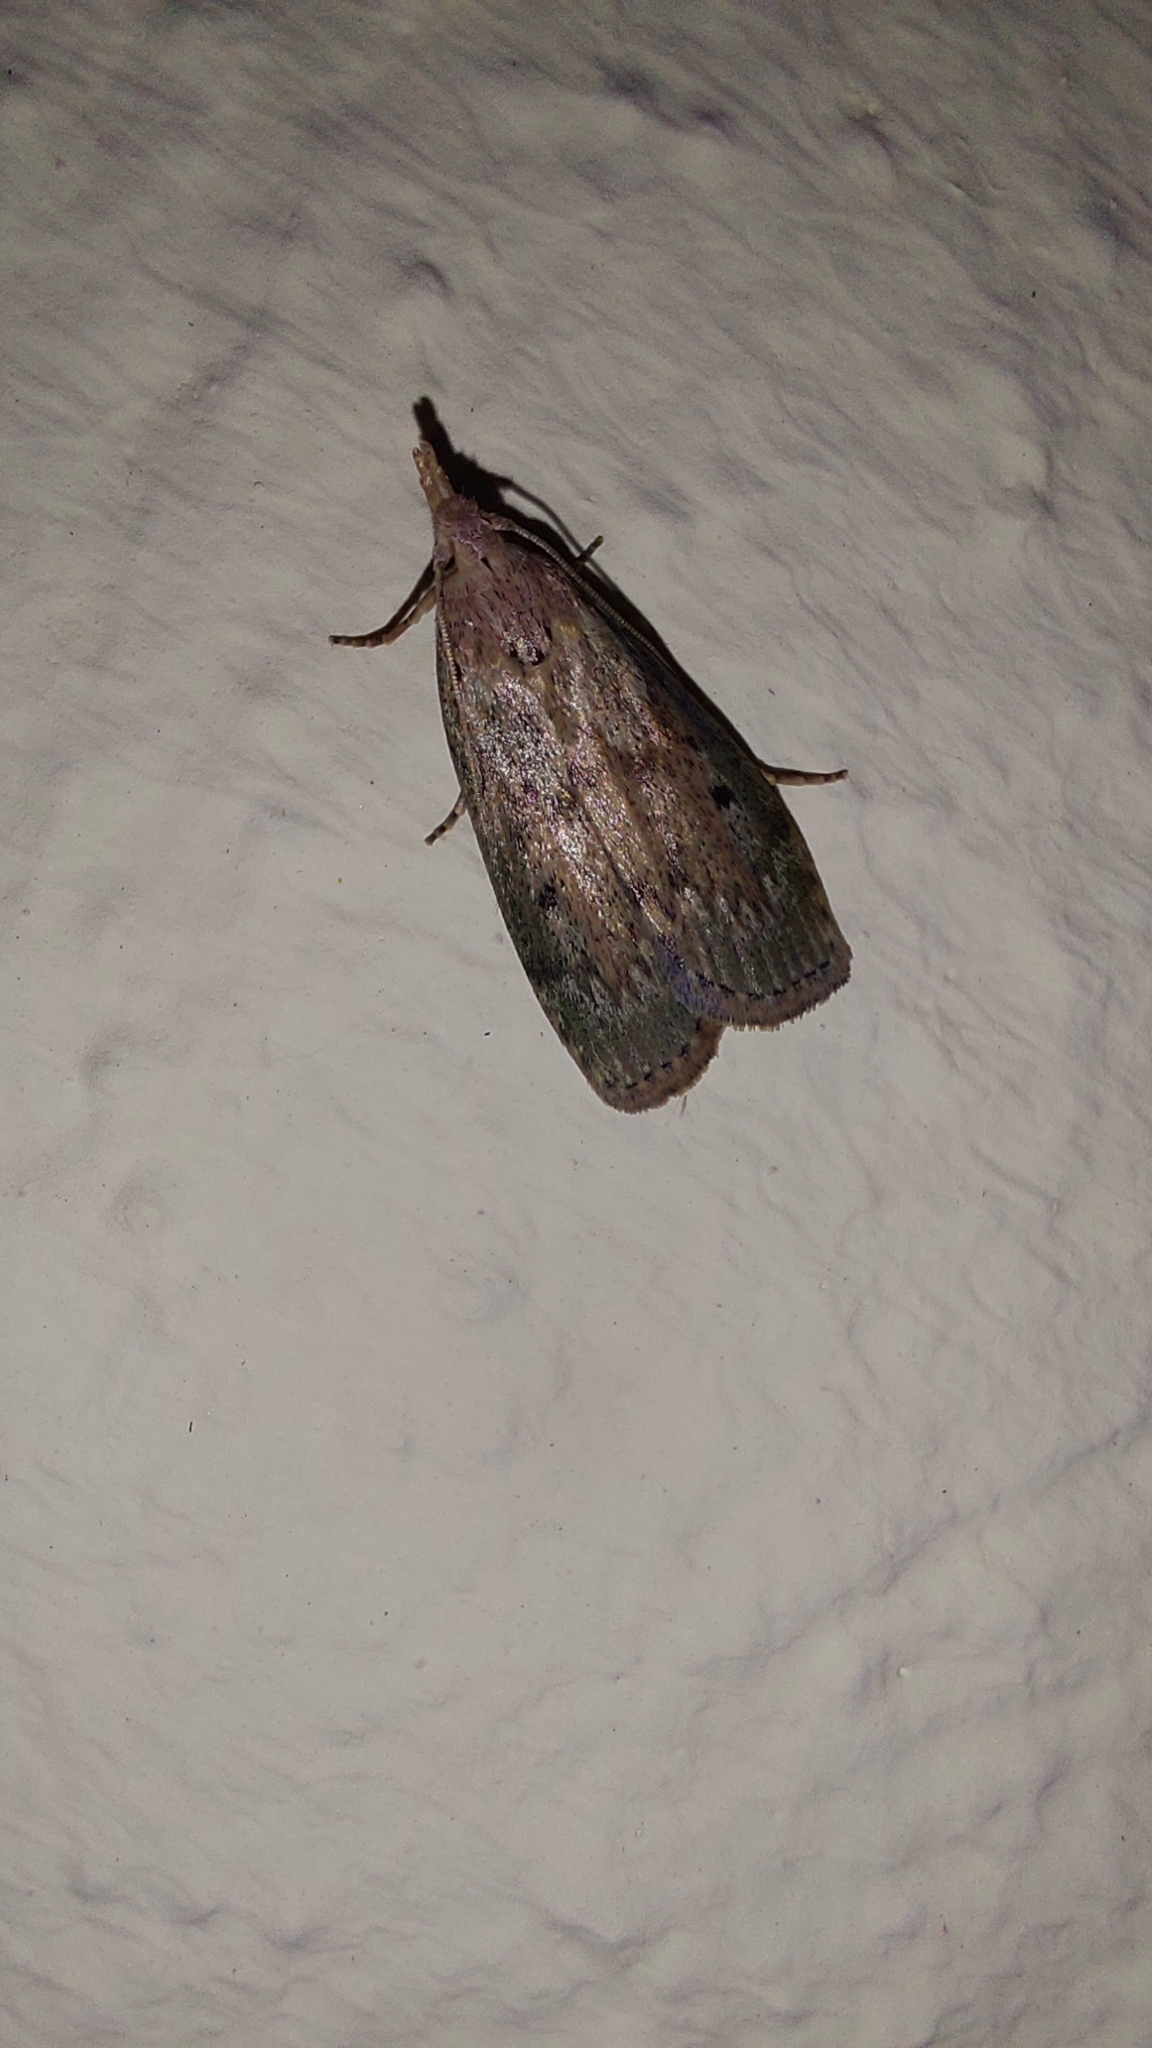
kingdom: Animalia
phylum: Arthropoda
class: Insecta
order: Lepidoptera
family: Pyralidae
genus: Aphomia
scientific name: Aphomia sociella
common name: Bee moth
